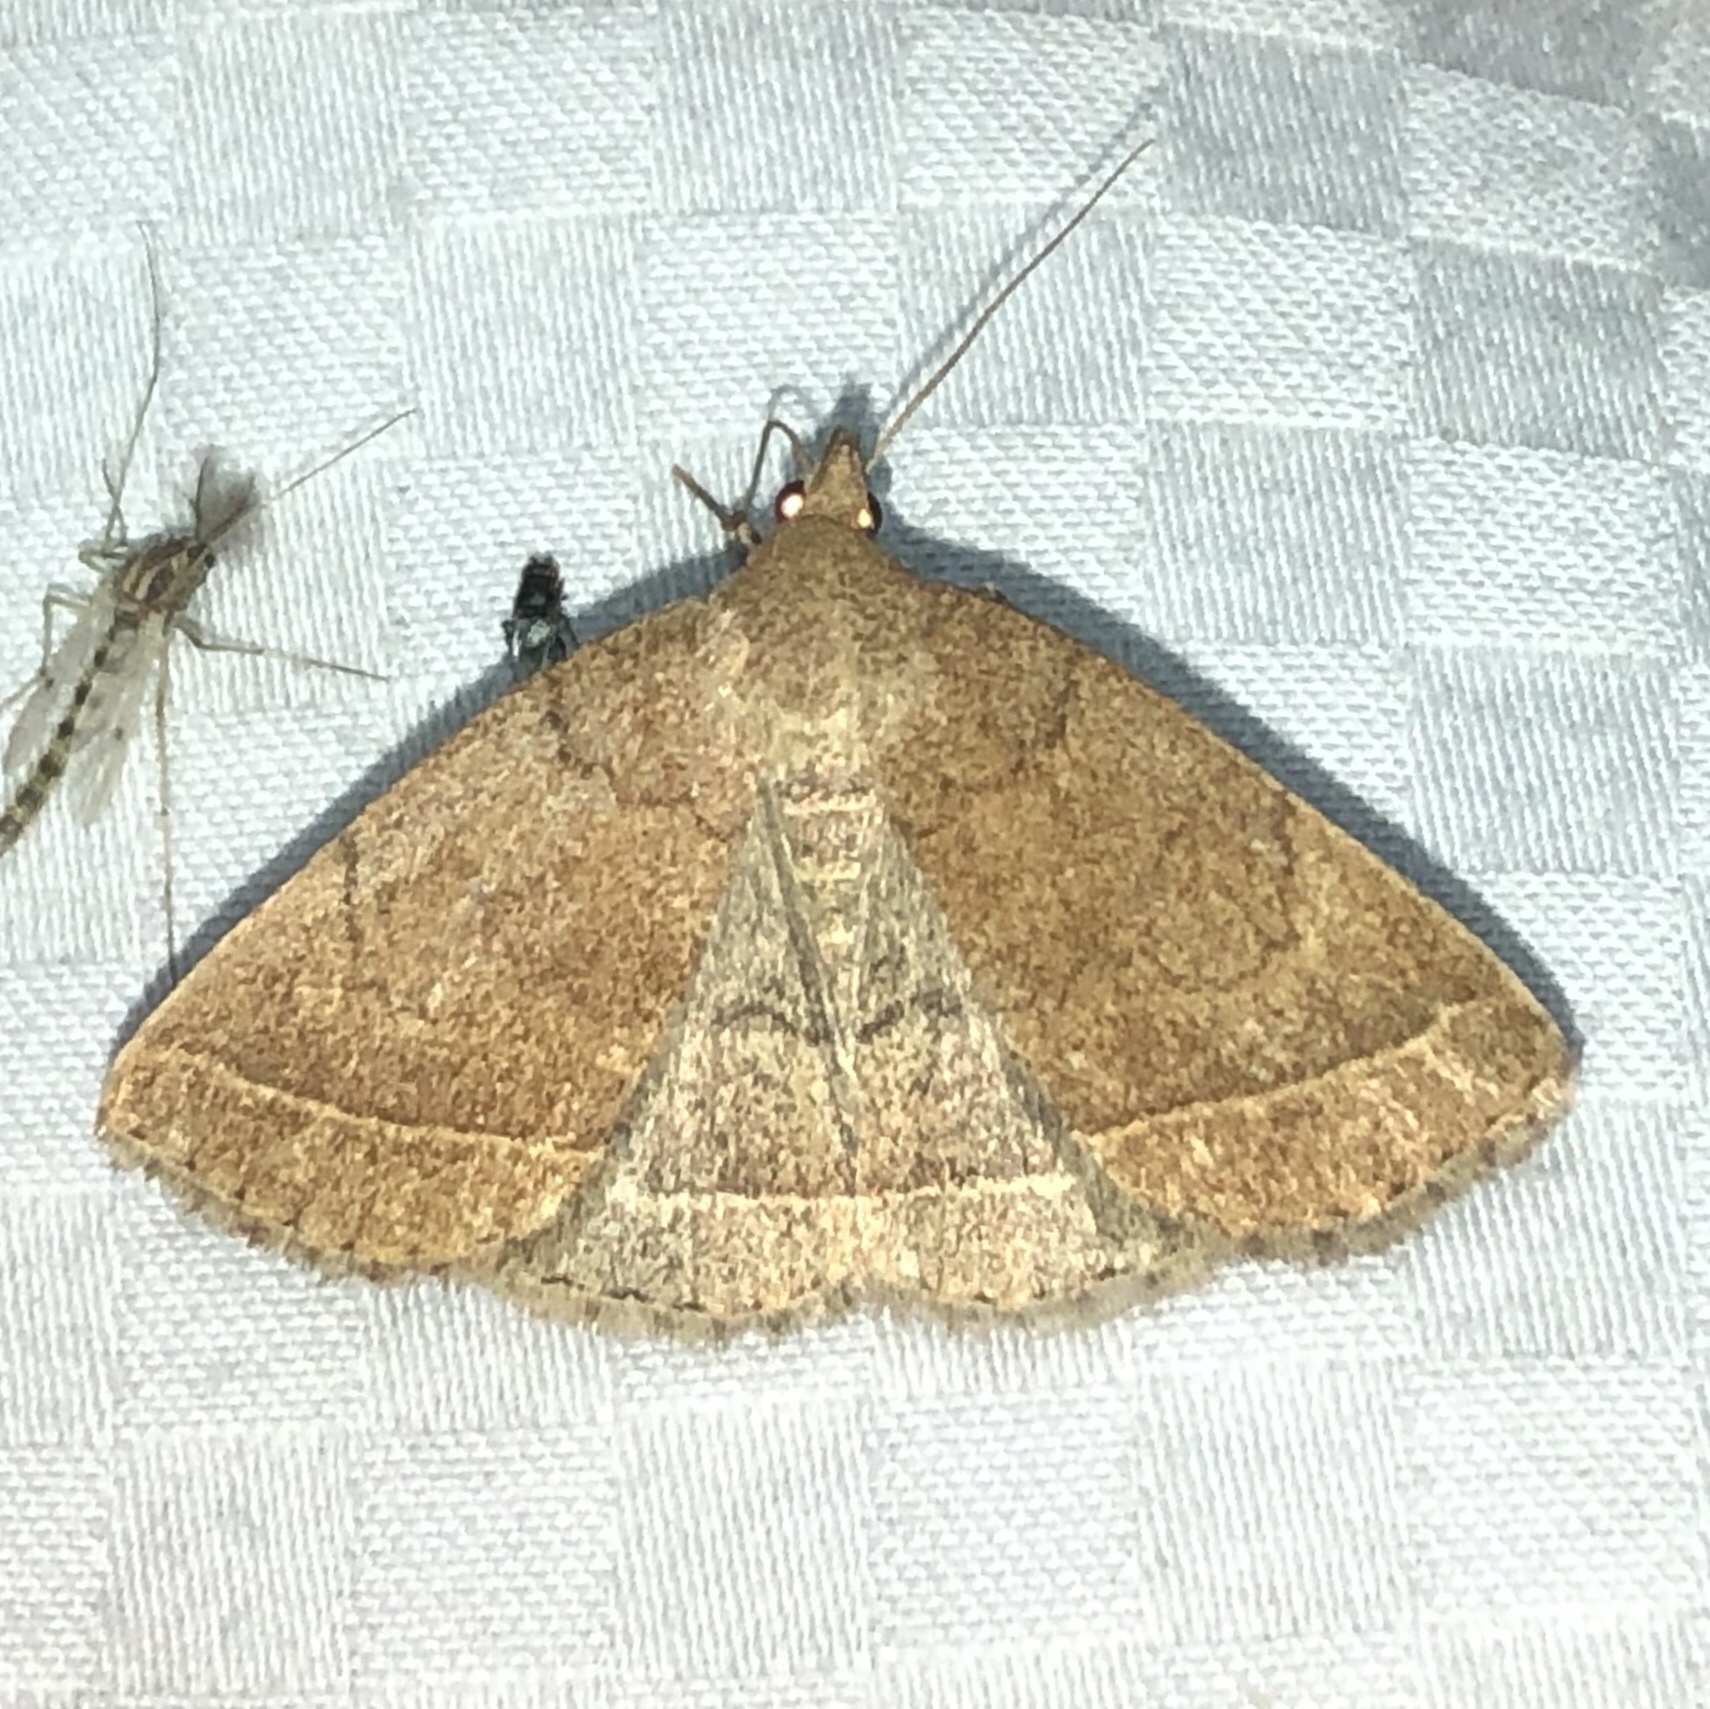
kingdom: Animalia
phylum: Arthropoda
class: Insecta
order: Lepidoptera
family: Erebidae
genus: Zanclognatha
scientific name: Zanclognatha jacchusalis
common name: Yellowish zanclognatha
